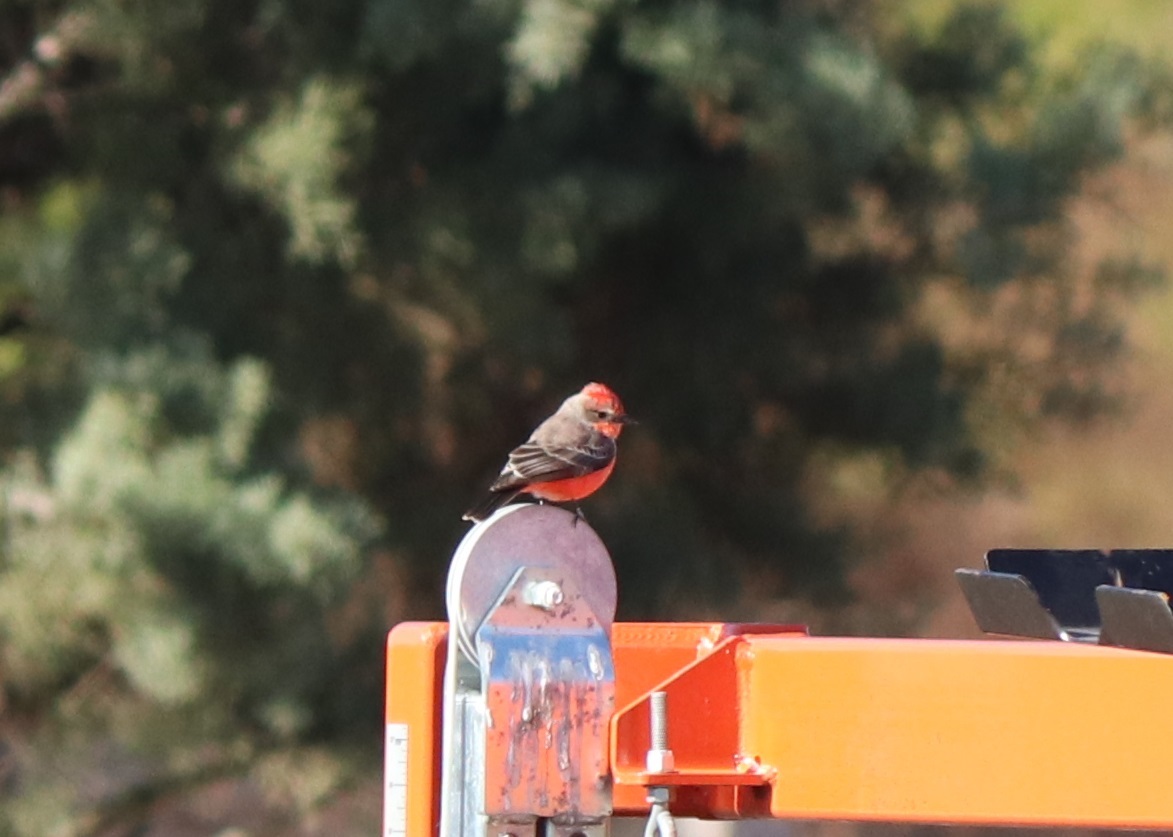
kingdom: Animalia
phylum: Chordata
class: Aves
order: Passeriformes
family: Tyrannidae
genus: Pyrocephalus
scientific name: Pyrocephalus rubinus
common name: Vermilion flycatcher
